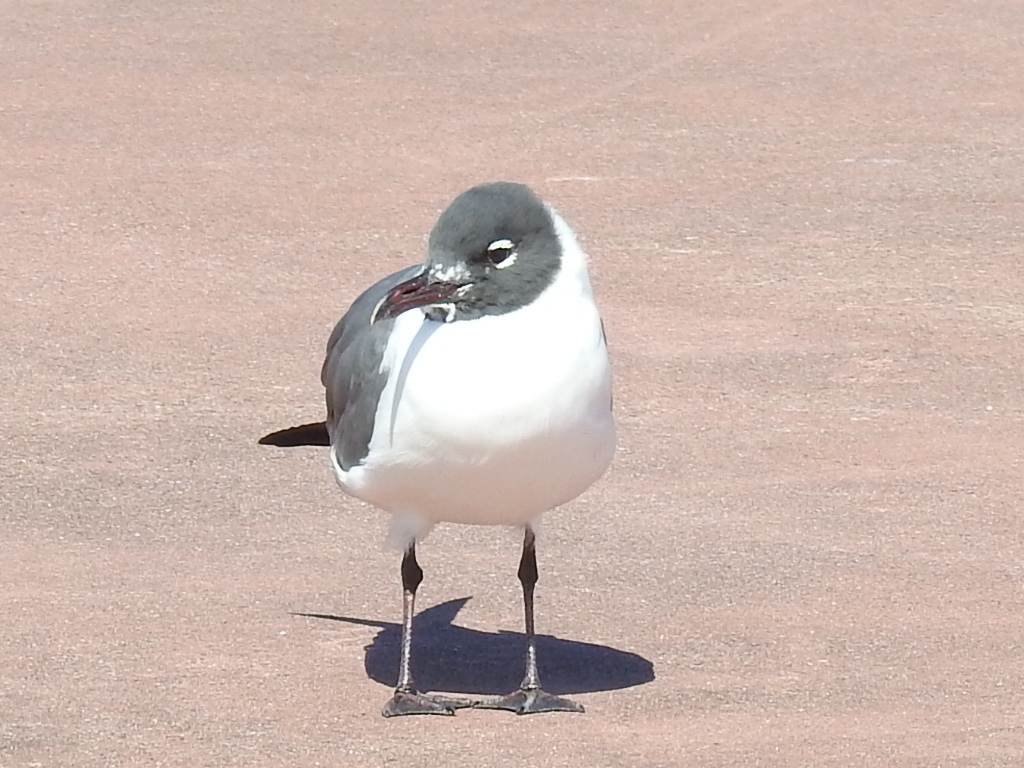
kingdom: Animalia
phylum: Chordata
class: Aves
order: Charadriiformes
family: Laridae
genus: Leucophaeus
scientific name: Leucophaeus atricilla
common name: Laughing gull
